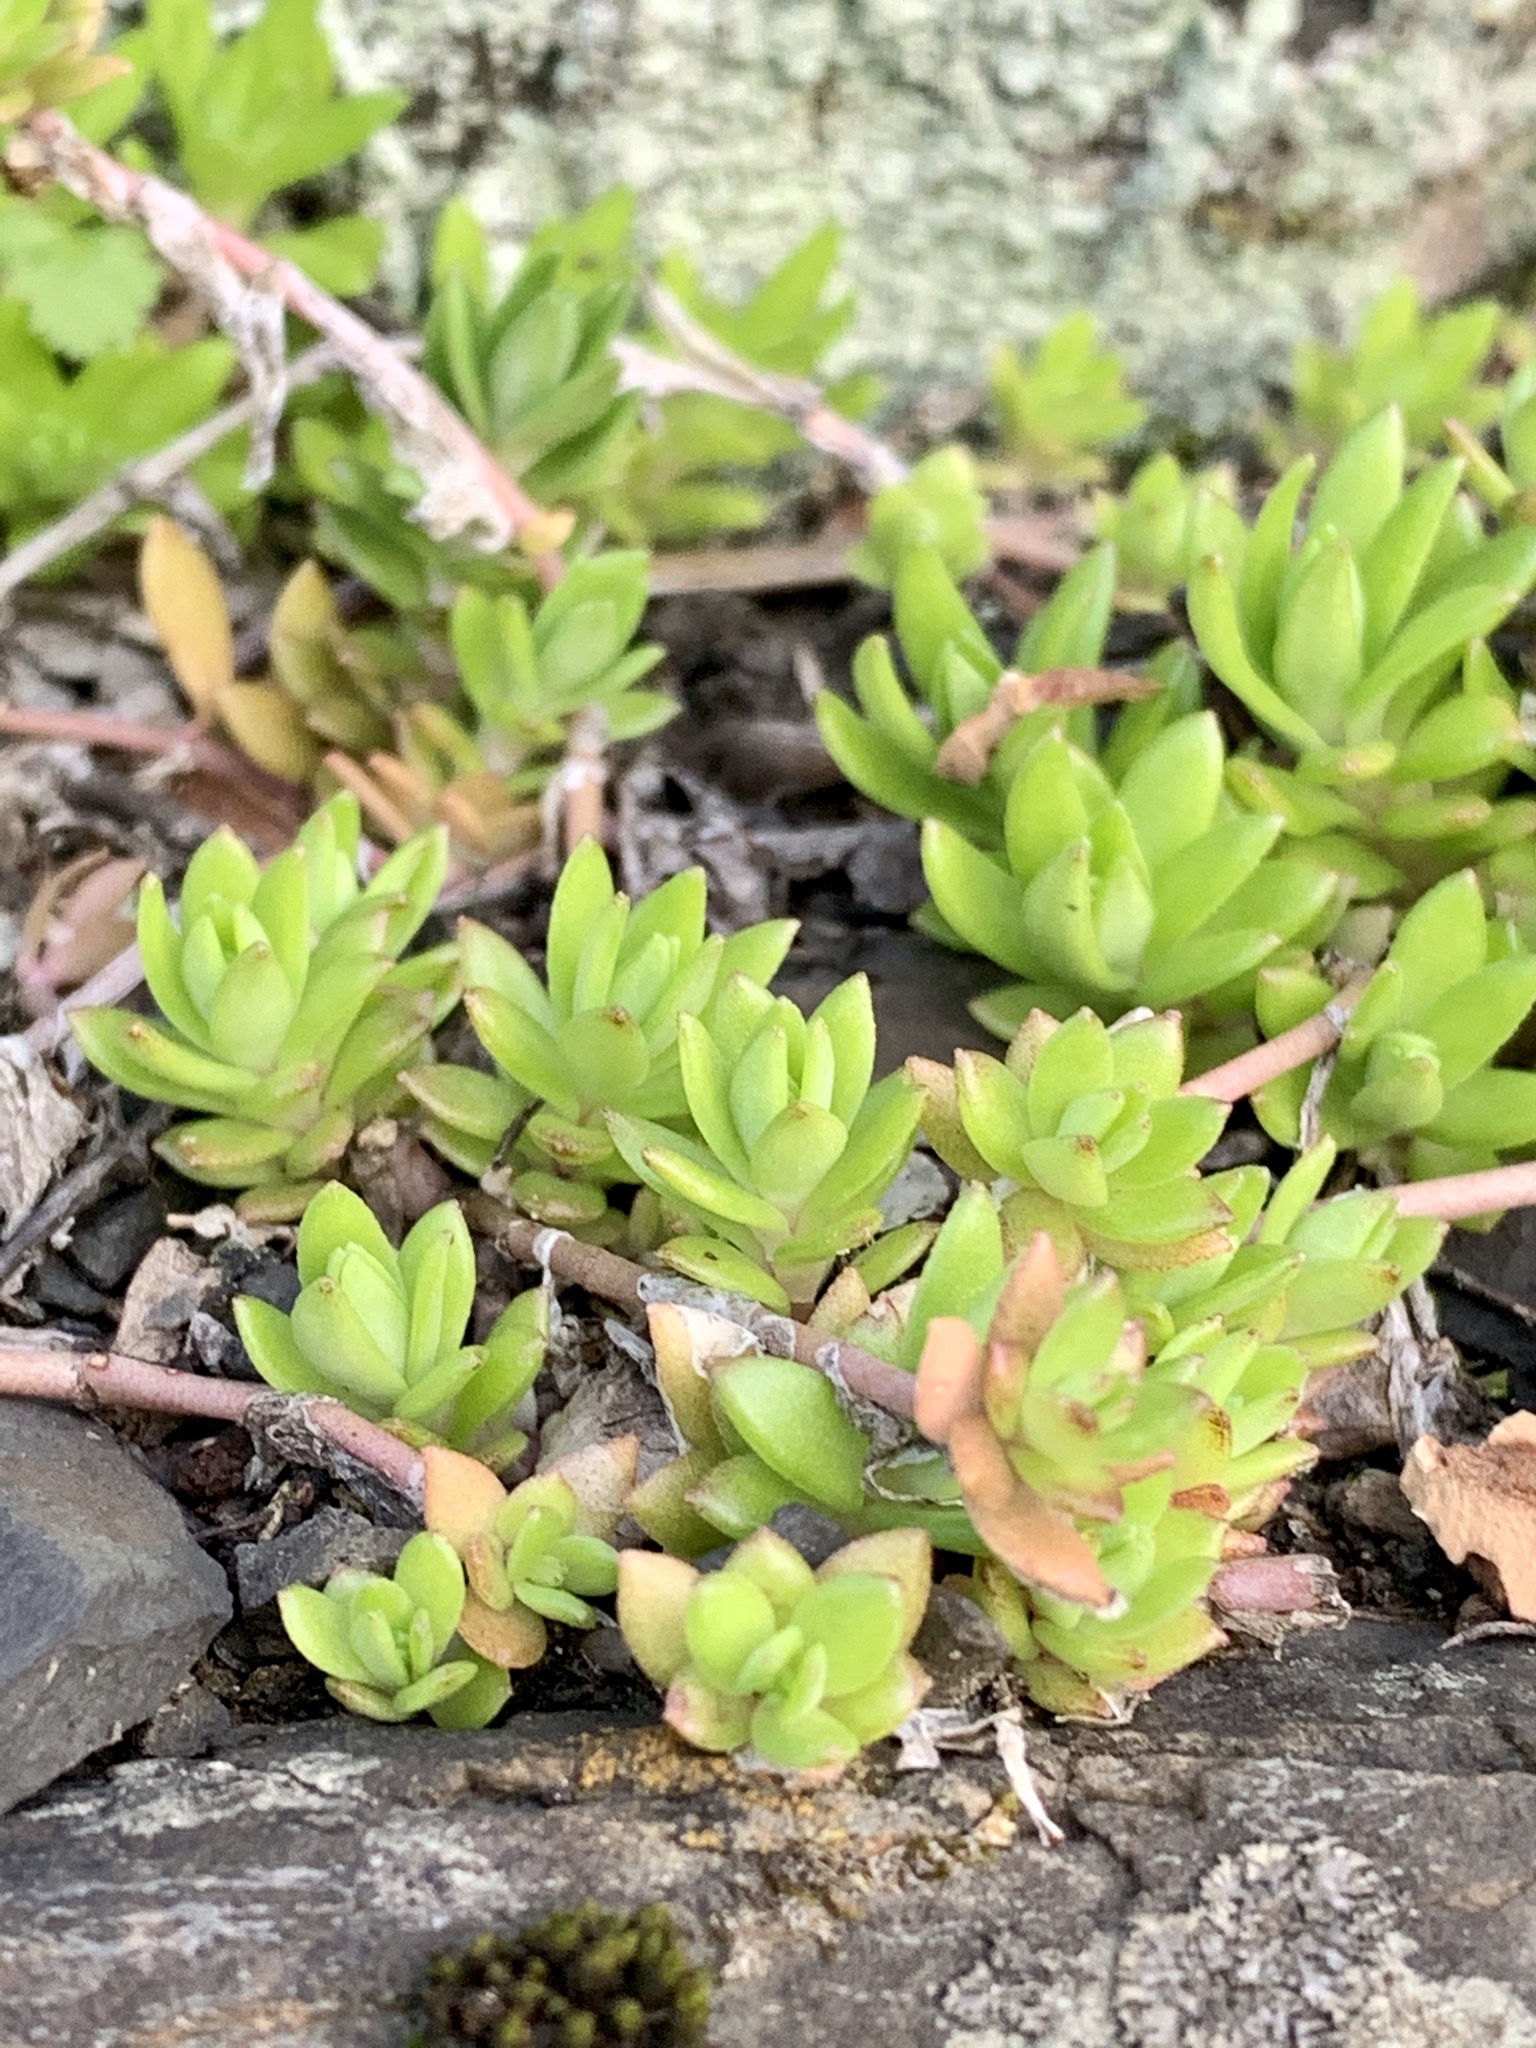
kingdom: Plantae
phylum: Tracheophyta
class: Magnoliopsida
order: Saxifragales
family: Crassulaceae
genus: Sedum
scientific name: Sedum sarmentosum
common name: Stringy stonecrop
